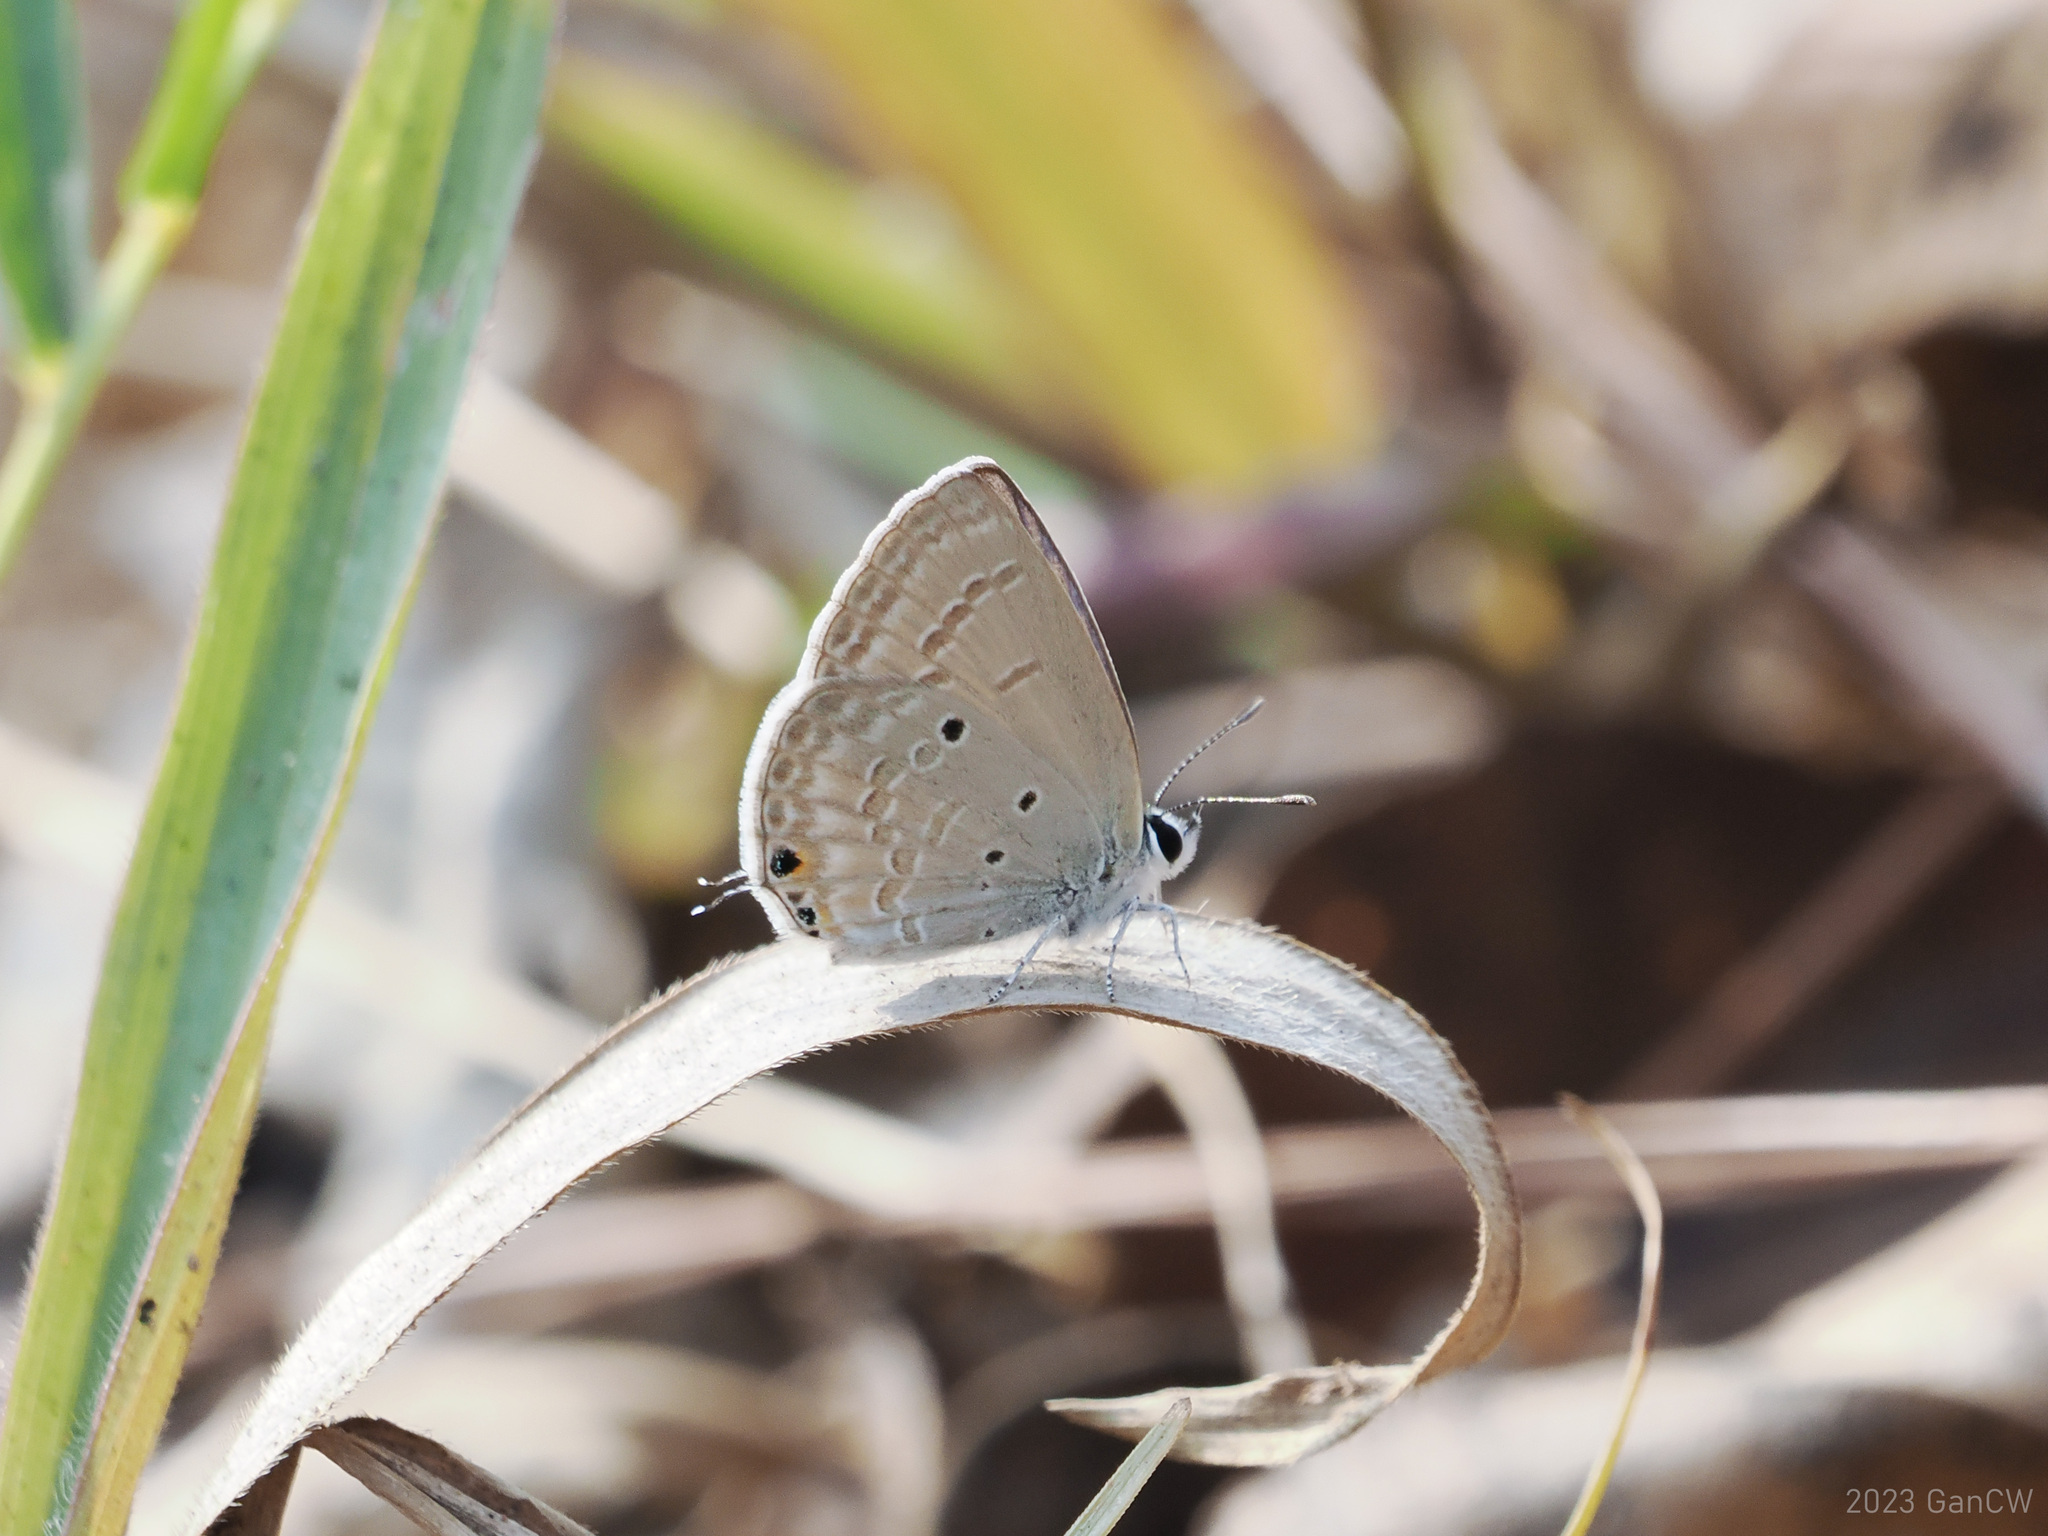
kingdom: Animalia
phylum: Arthropoda
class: Insecta
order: Lepidoptera
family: Lycaenidae
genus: Luthrodes
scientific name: Luthrodes pandava
